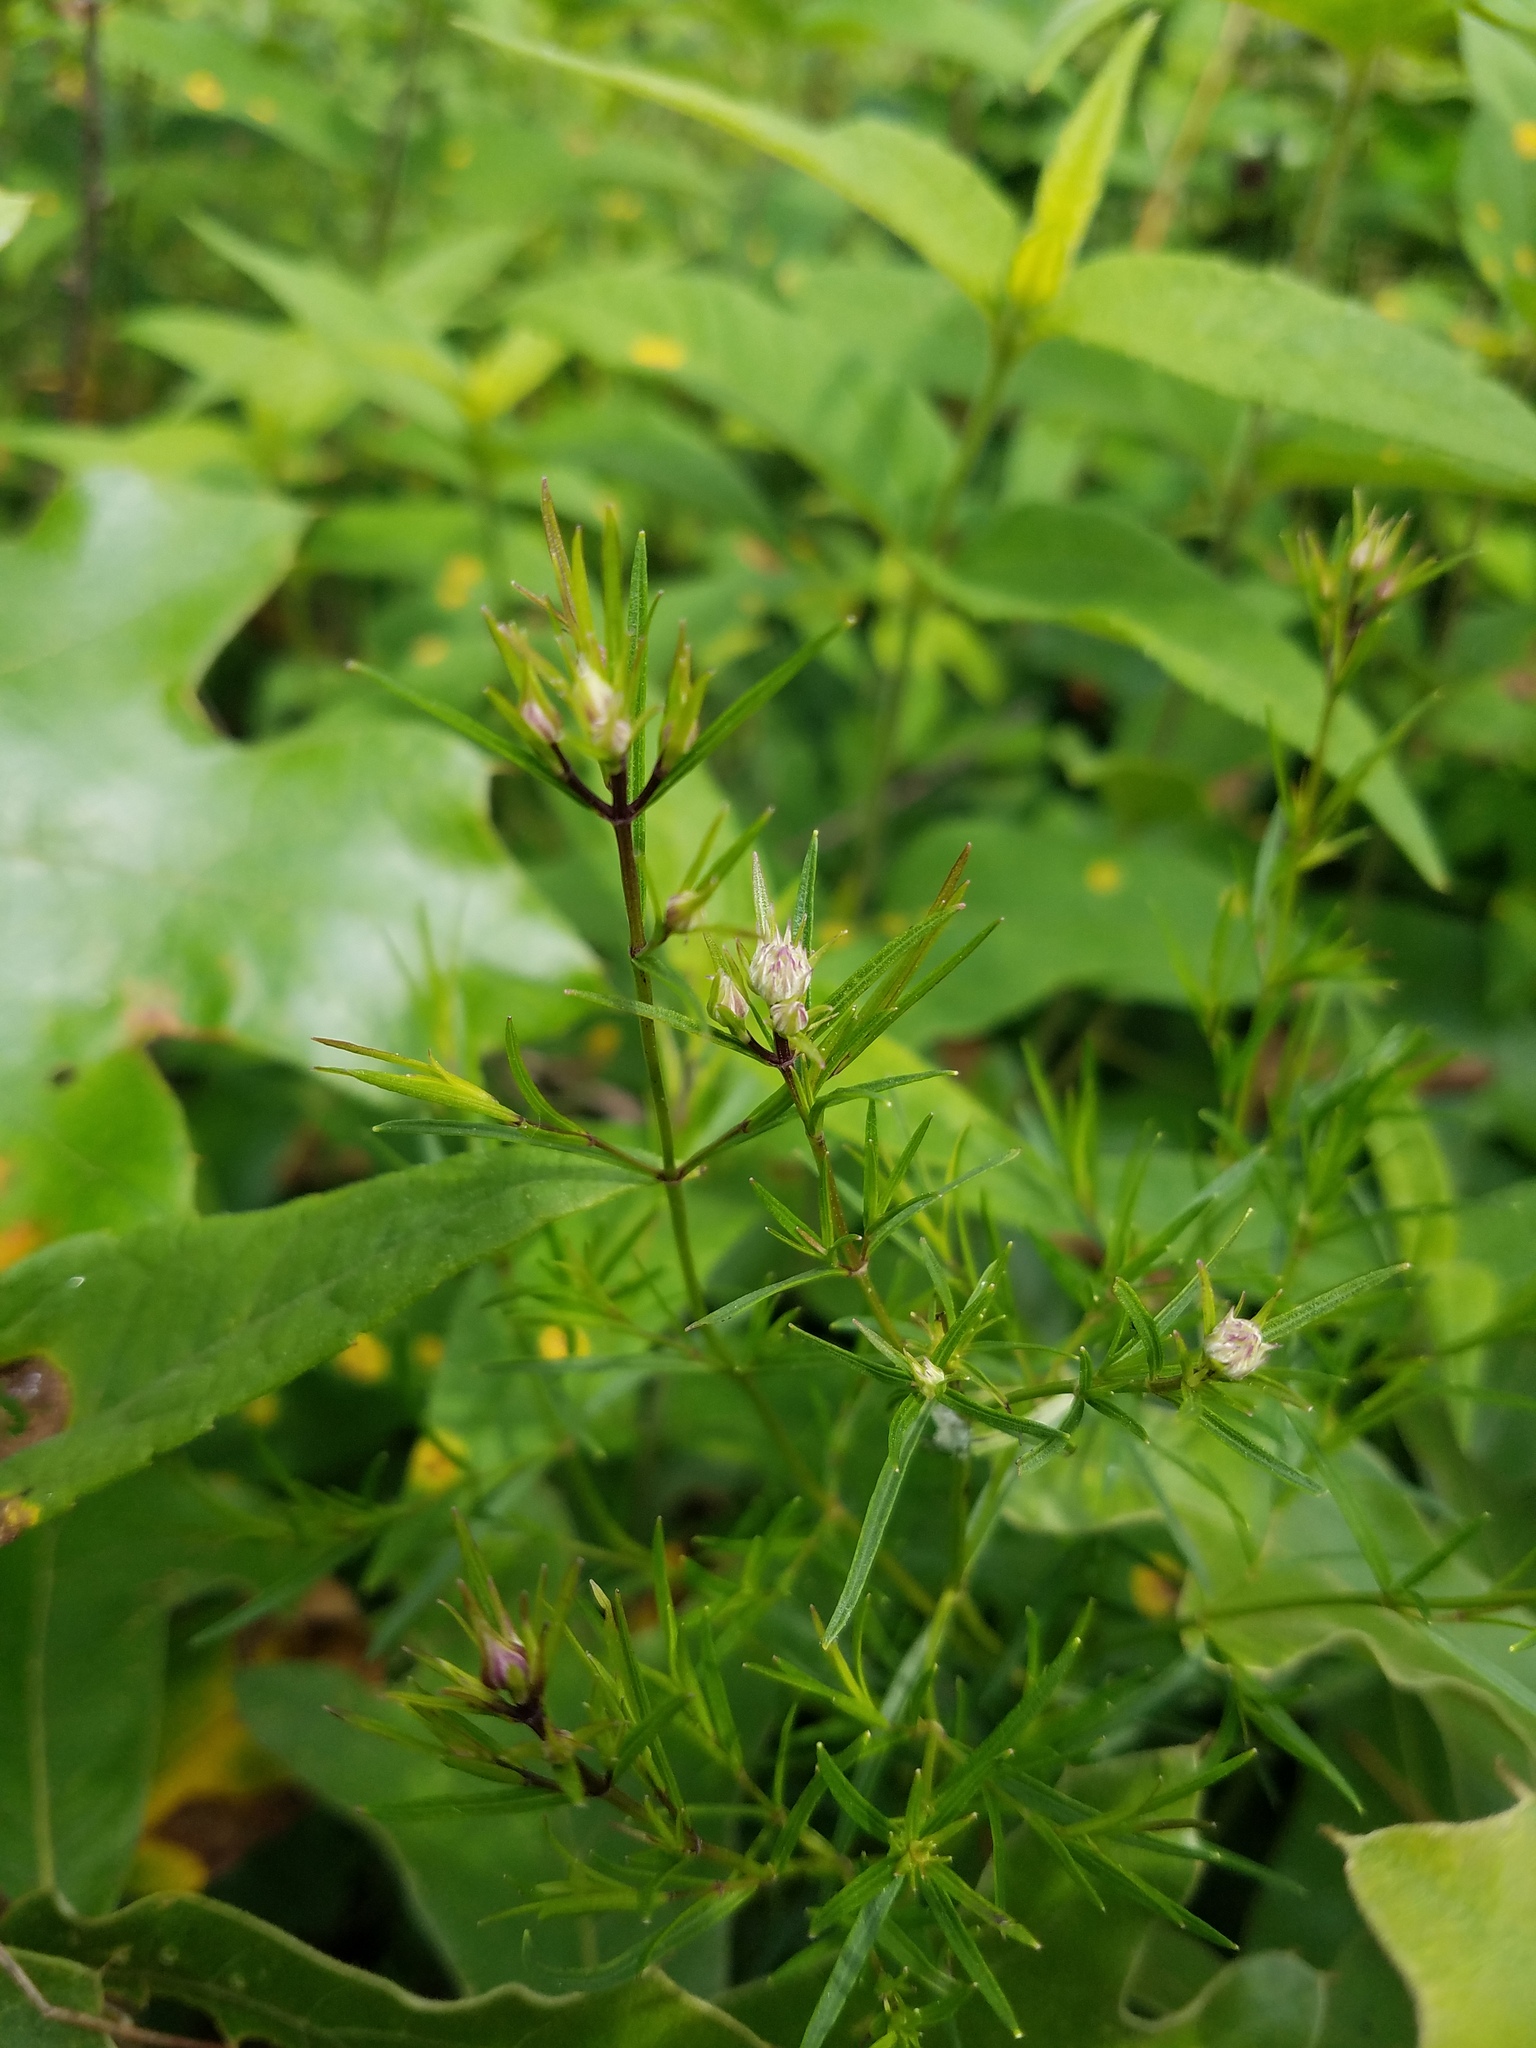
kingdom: Plantae
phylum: Tracheophyta
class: Magnoliopsida
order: Lamiales
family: Lamiaceae
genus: Pycnanthemum
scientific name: Pycnanthemum tenuifolium
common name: Narrow-leaf mountain-mint
